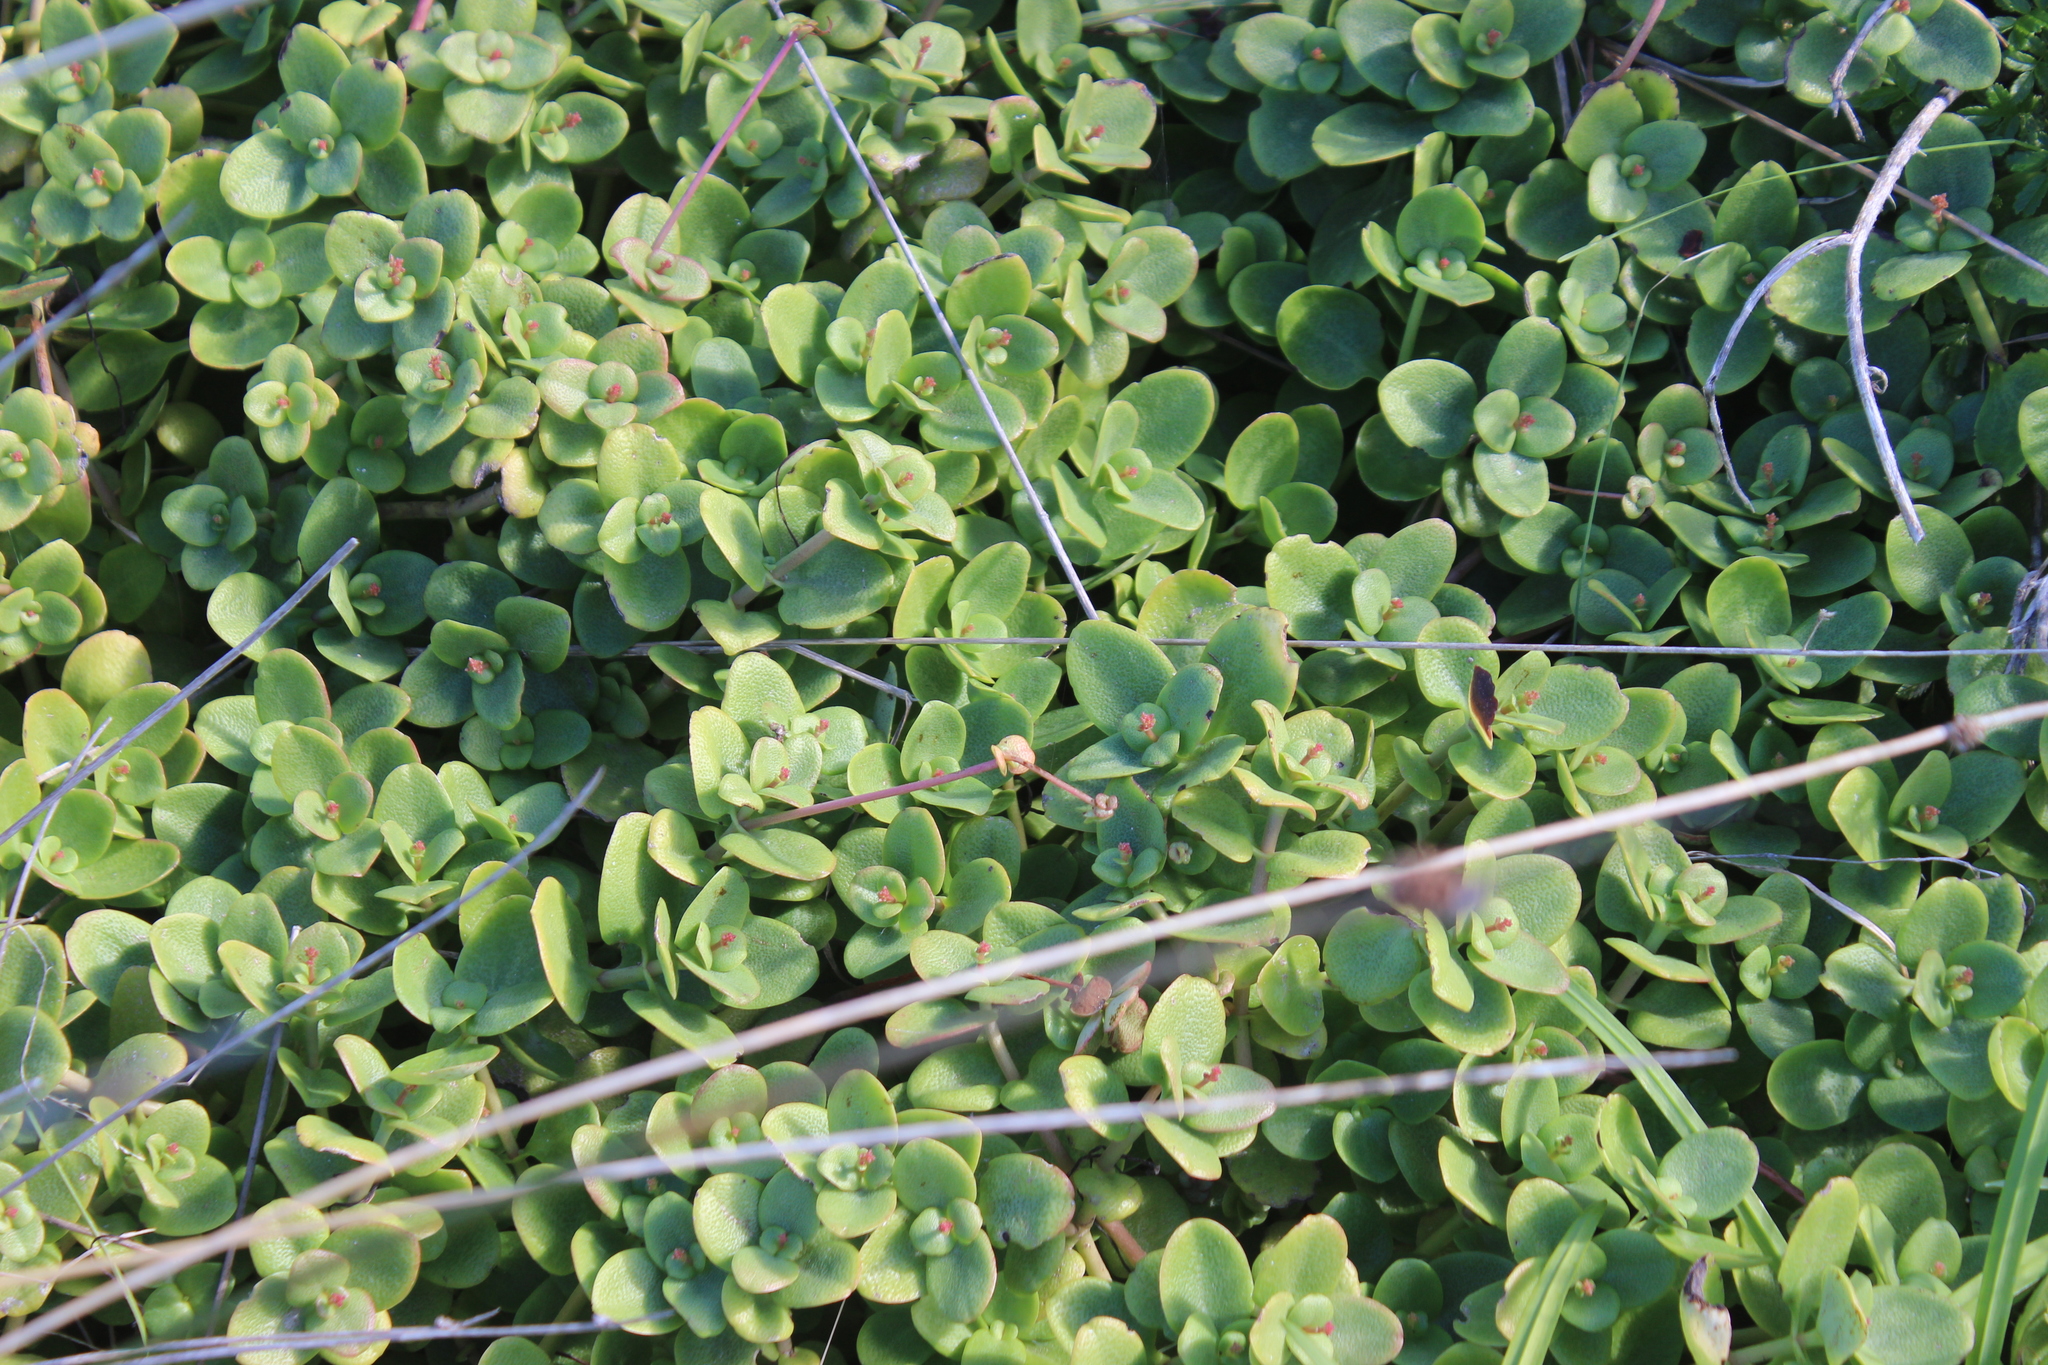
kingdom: Plantae
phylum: Tracheophyta
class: Magnoliopsida
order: Saxifragales
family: Crassulaceae
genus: Crassula
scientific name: Crassula multicava
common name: Cape province pygmyweed
